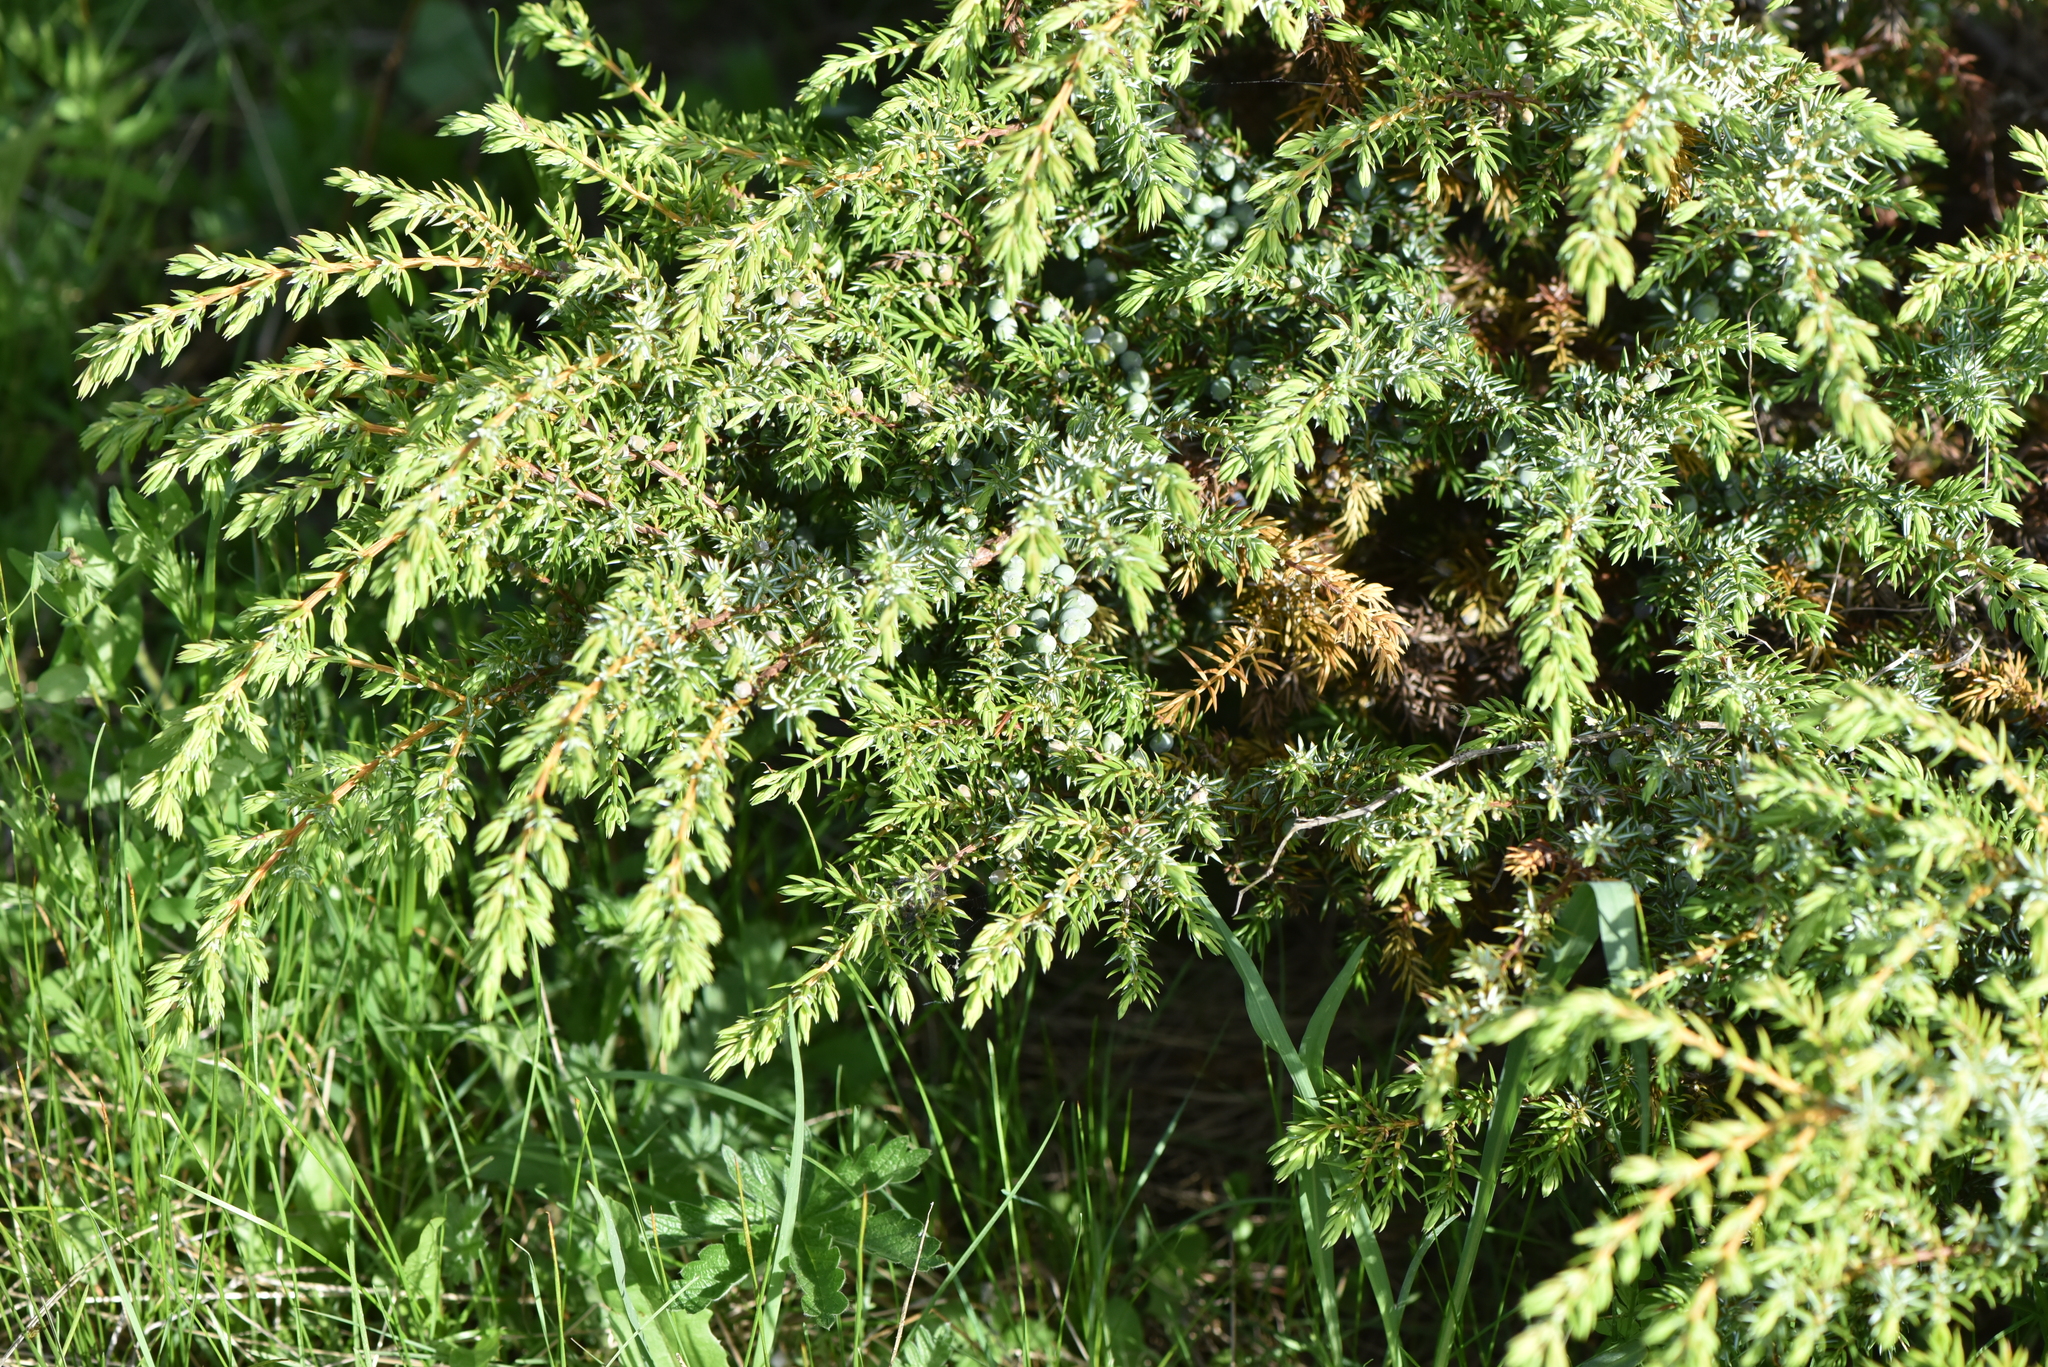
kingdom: Plantae
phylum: Tracheophyta
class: Pinopsida
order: Pinales
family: Cupressaceae
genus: Juniperus
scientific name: Juniperus communis
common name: Common juniper
